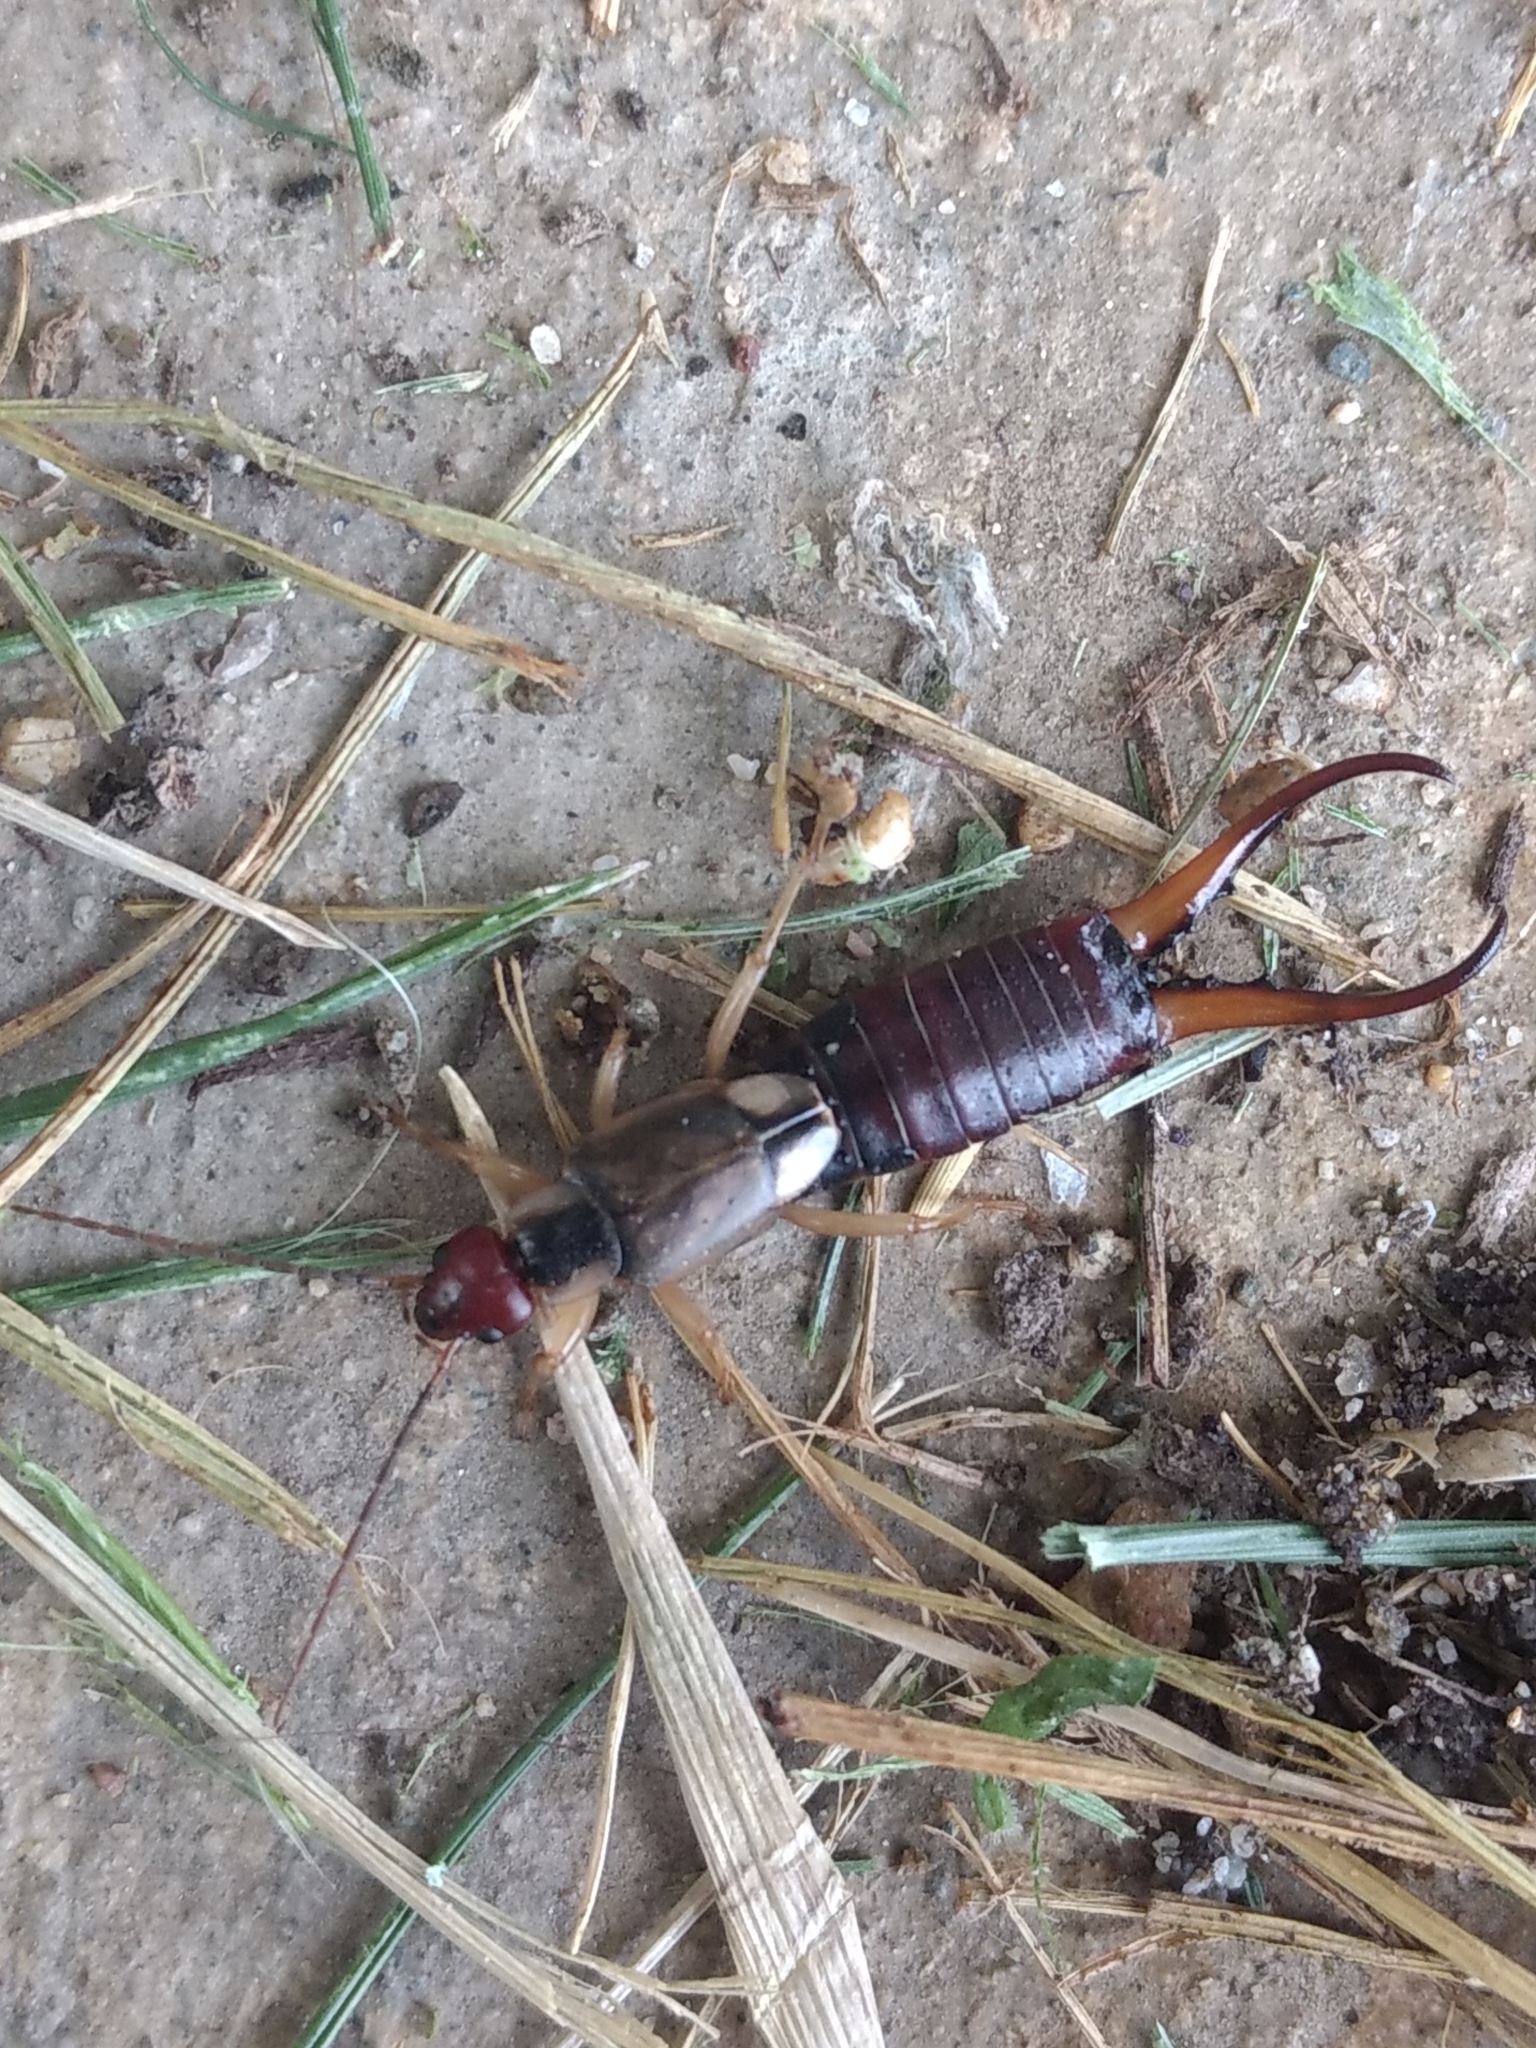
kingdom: Animalia
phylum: Arthropoda
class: Insecta
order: Dermaptera
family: Forficulidae
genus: Forficula
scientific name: Forficula
